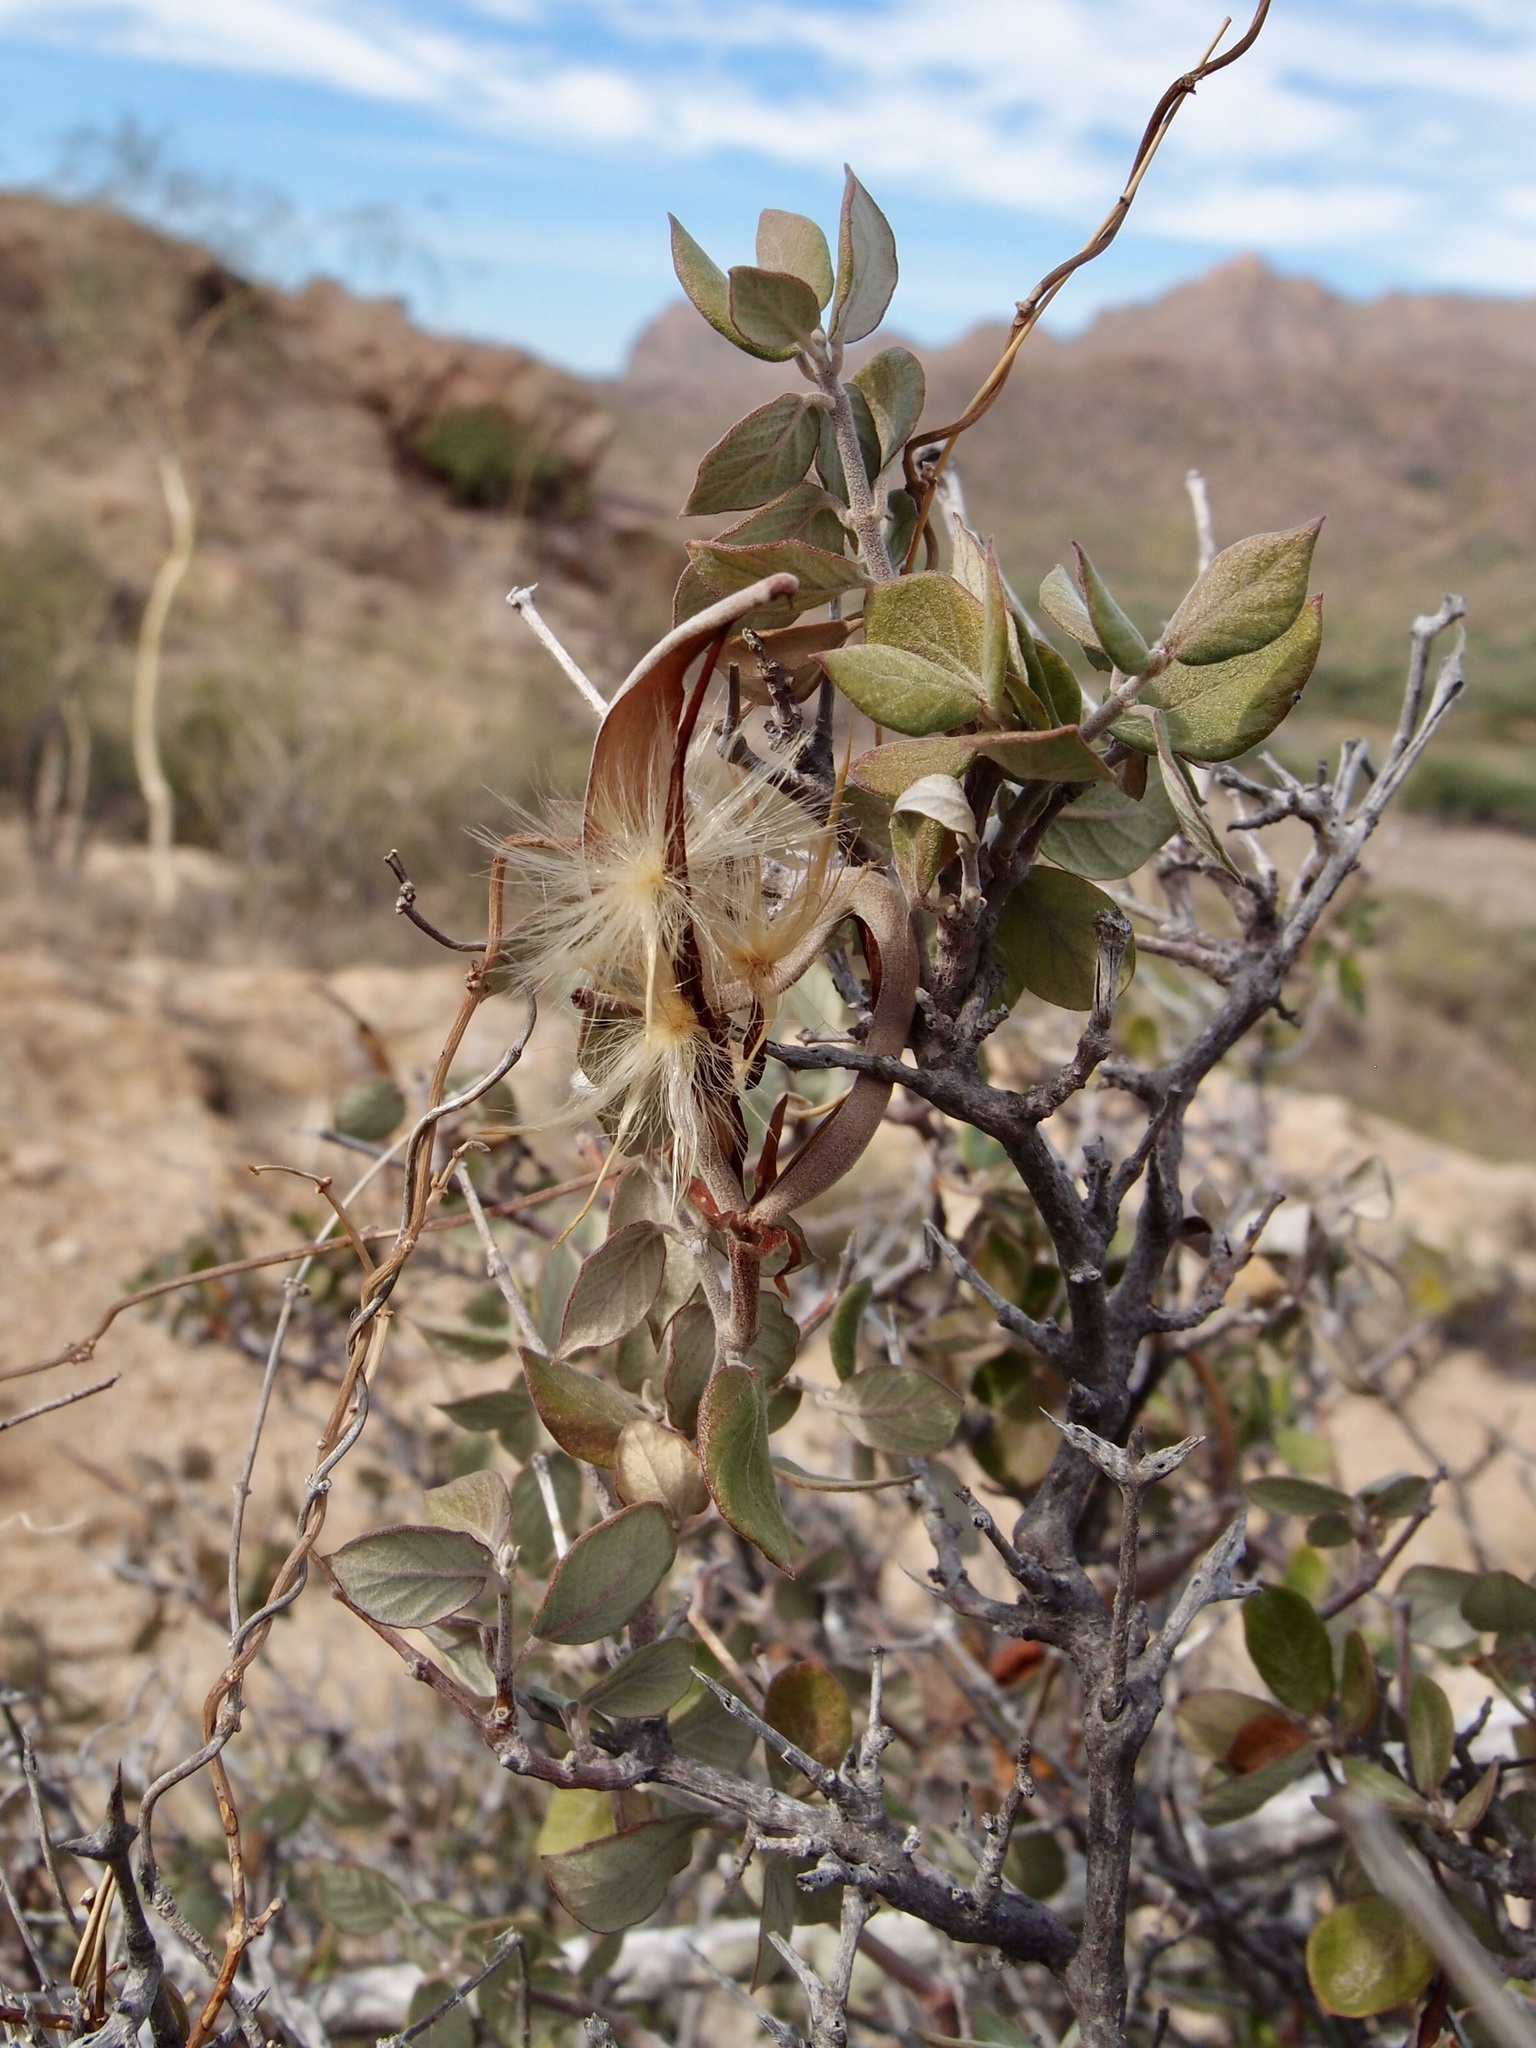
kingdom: Plantae
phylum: Tracheophyta
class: Magnoliopsida
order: Gentianales
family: Apocynaceae
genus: Mandevilla
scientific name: Mandevilla nacapulensis
